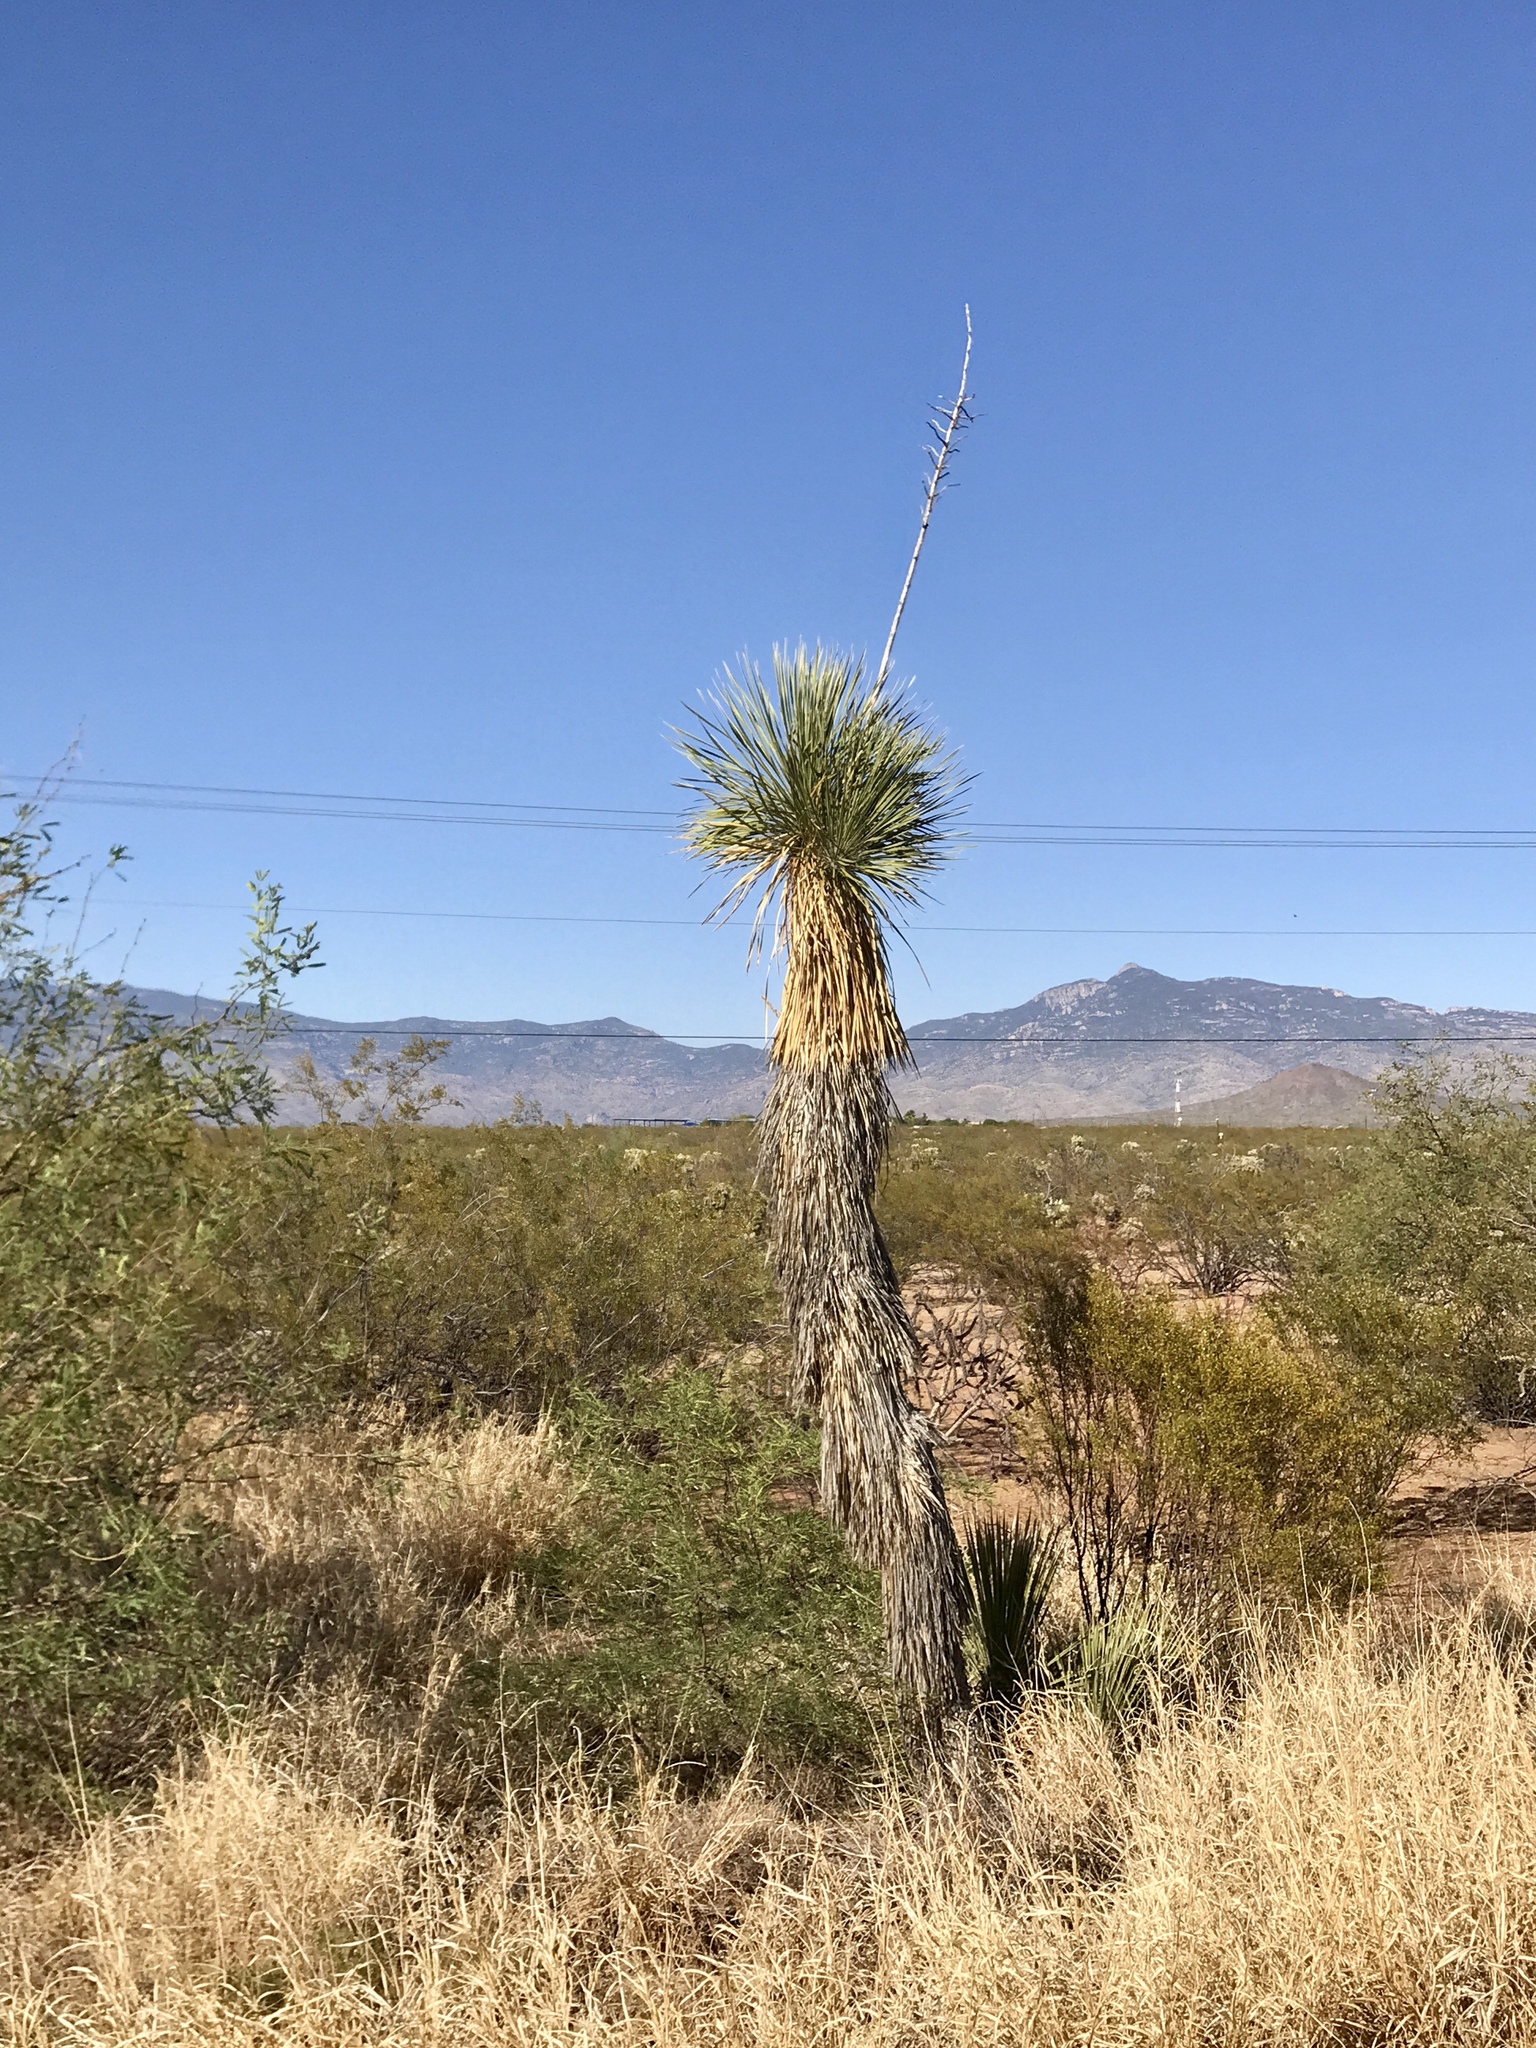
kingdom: Plantae
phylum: Tracheophyta
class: Liliopsida
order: Asparagales
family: Asparagaceae
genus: Yucca
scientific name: Yucca elata
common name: Palmella
